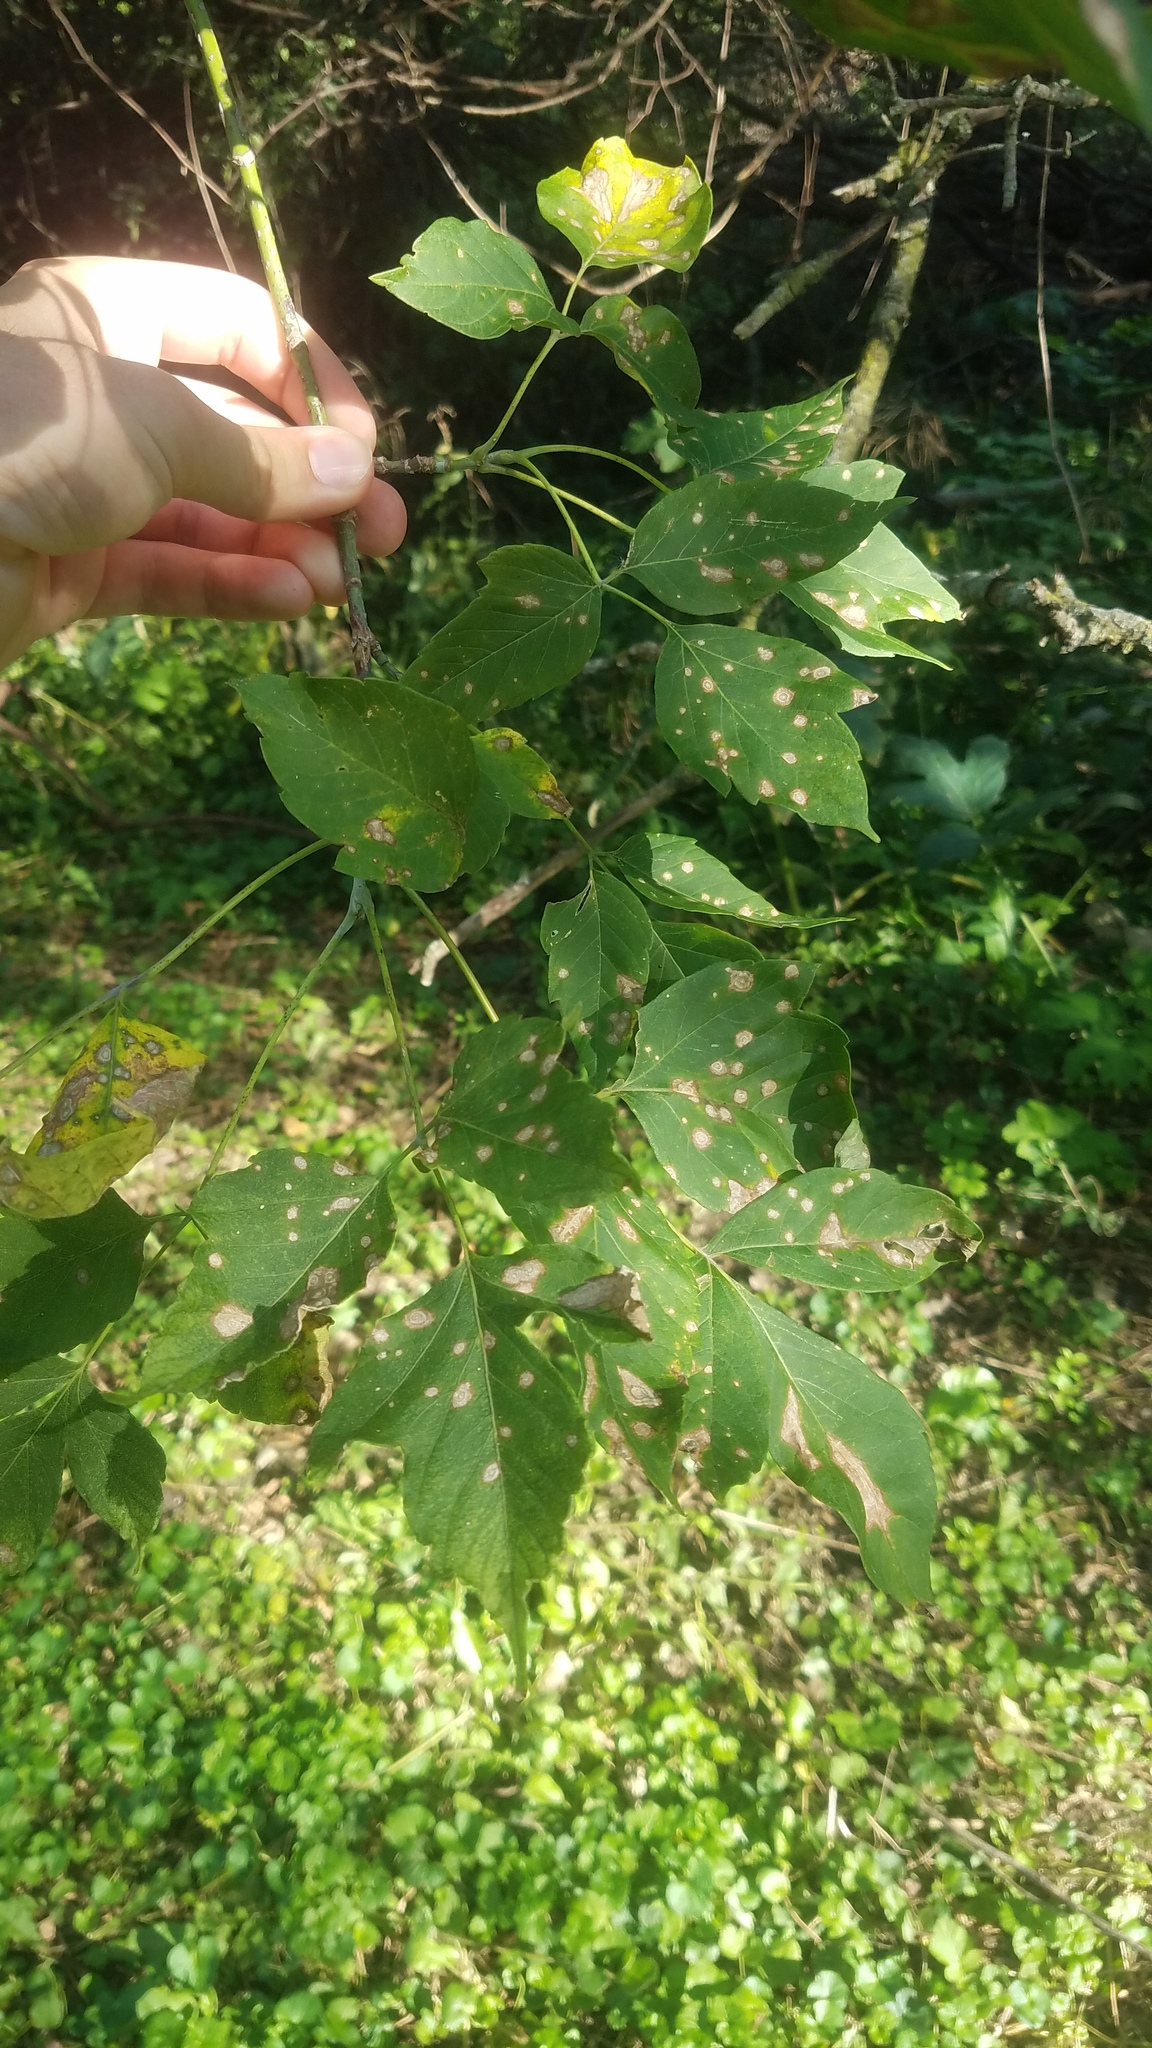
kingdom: Plantae
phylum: Tracheophyta
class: Magnoliopsida
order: Sapindales
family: Sapindaceae
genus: Acer
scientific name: Acer negundo
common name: Ashleaf maple
